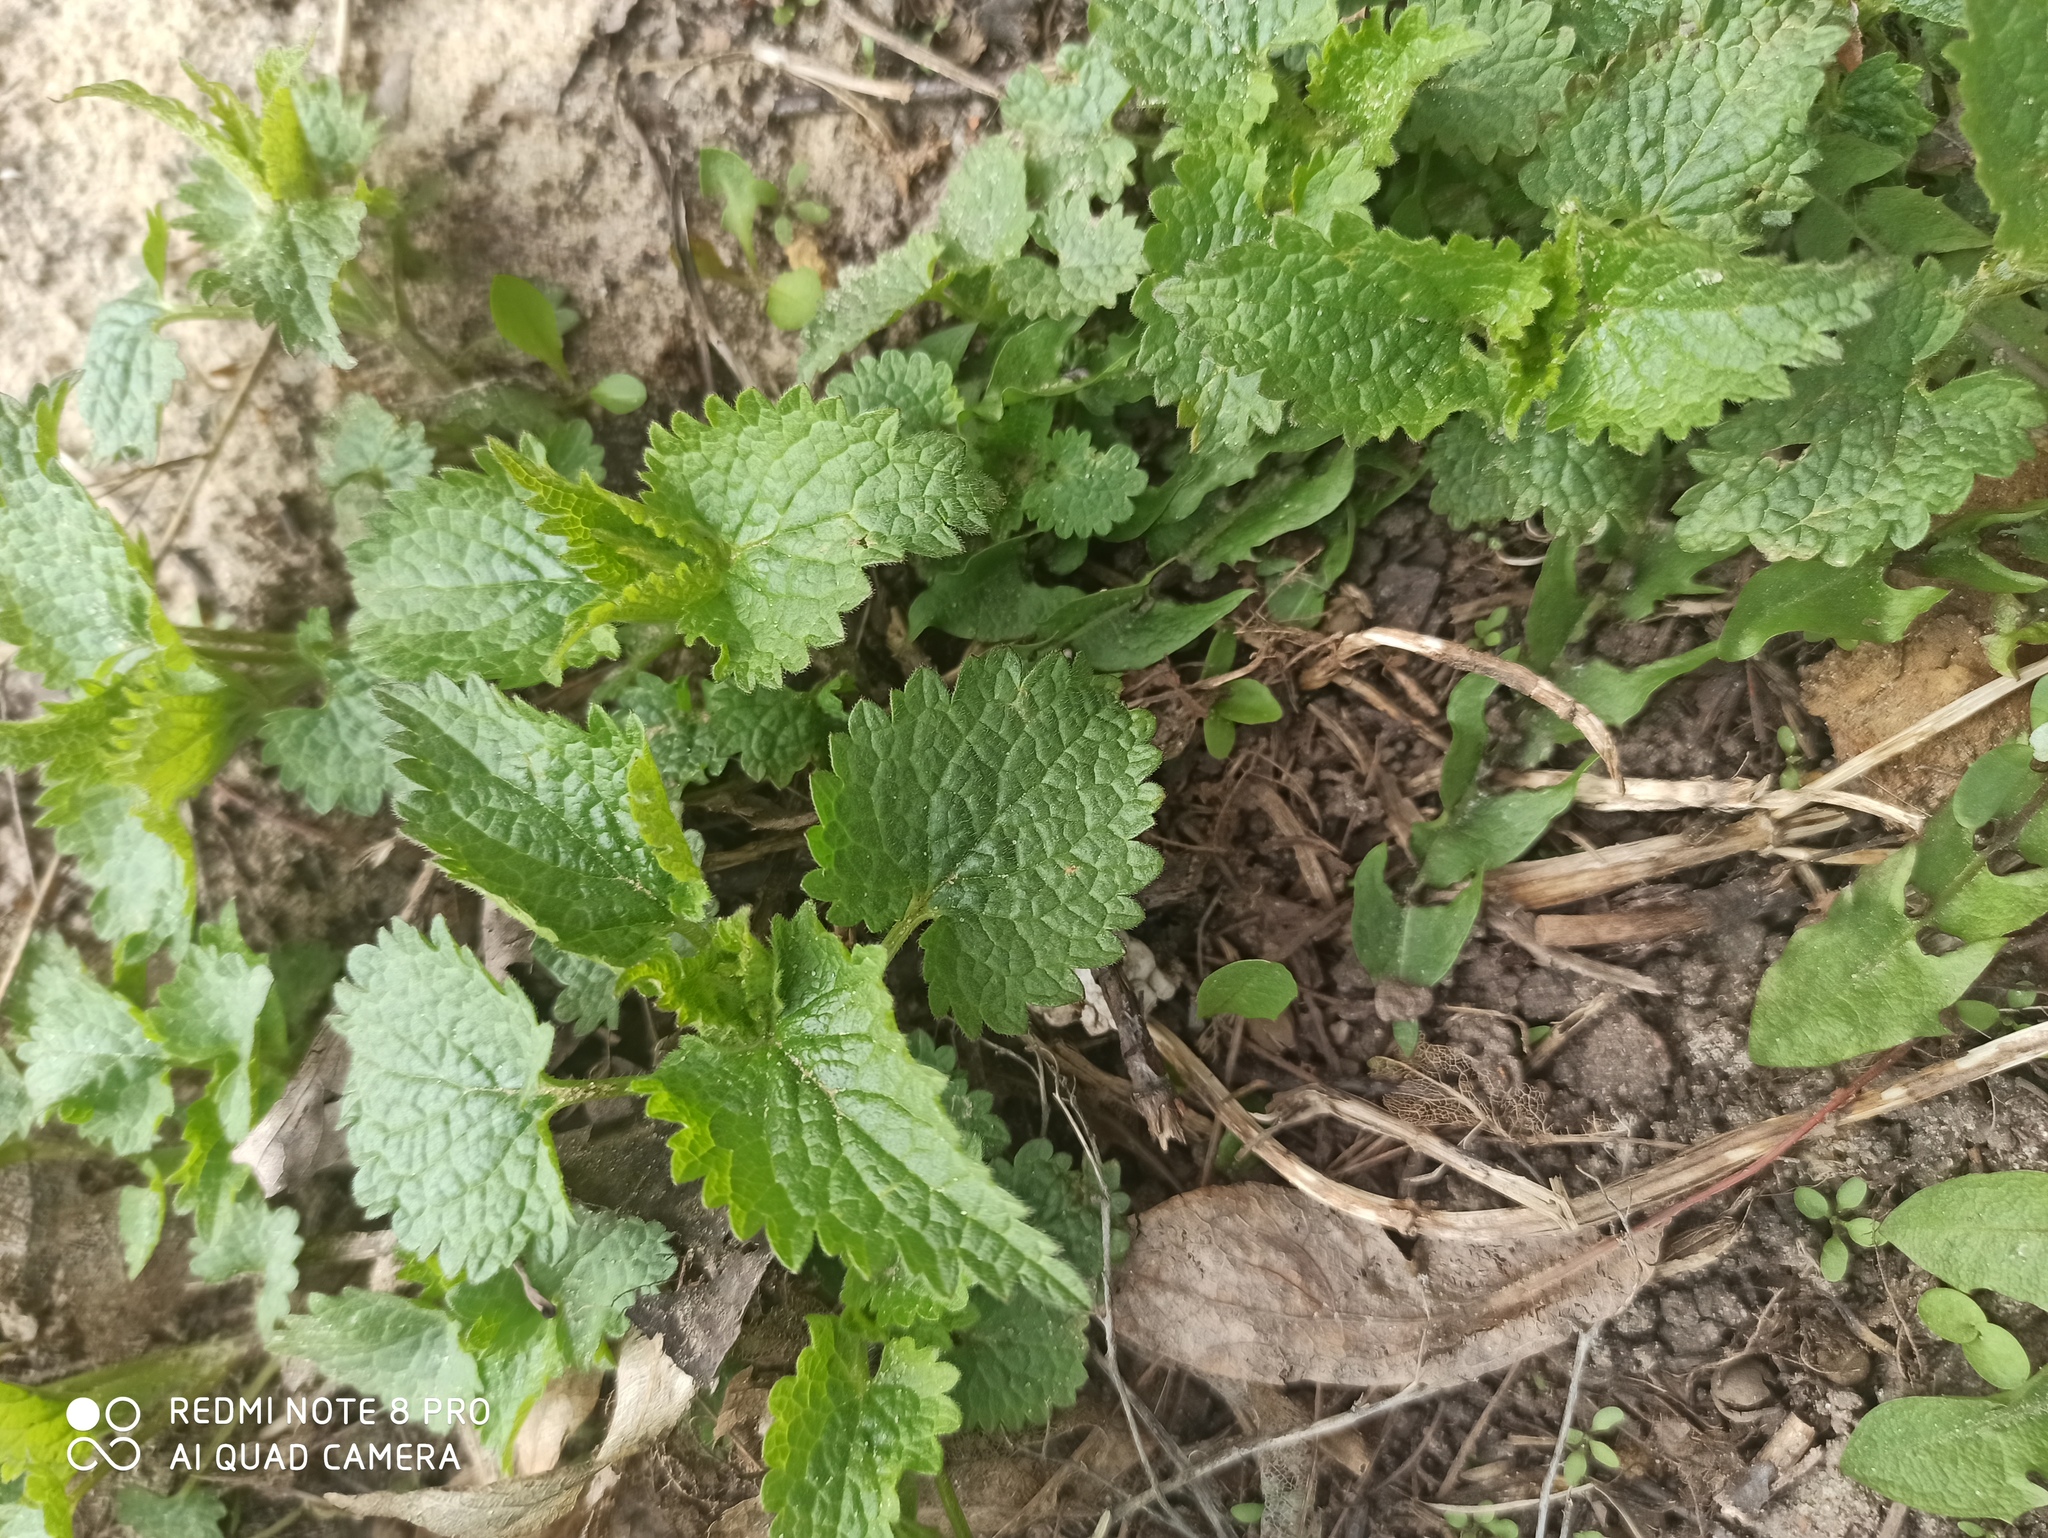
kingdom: Plantae
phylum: Tracheophyta
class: Magnoliopsida
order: Lamiales
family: Lamiaceae
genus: Lamium
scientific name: Lamium album
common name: White dead-nettle
